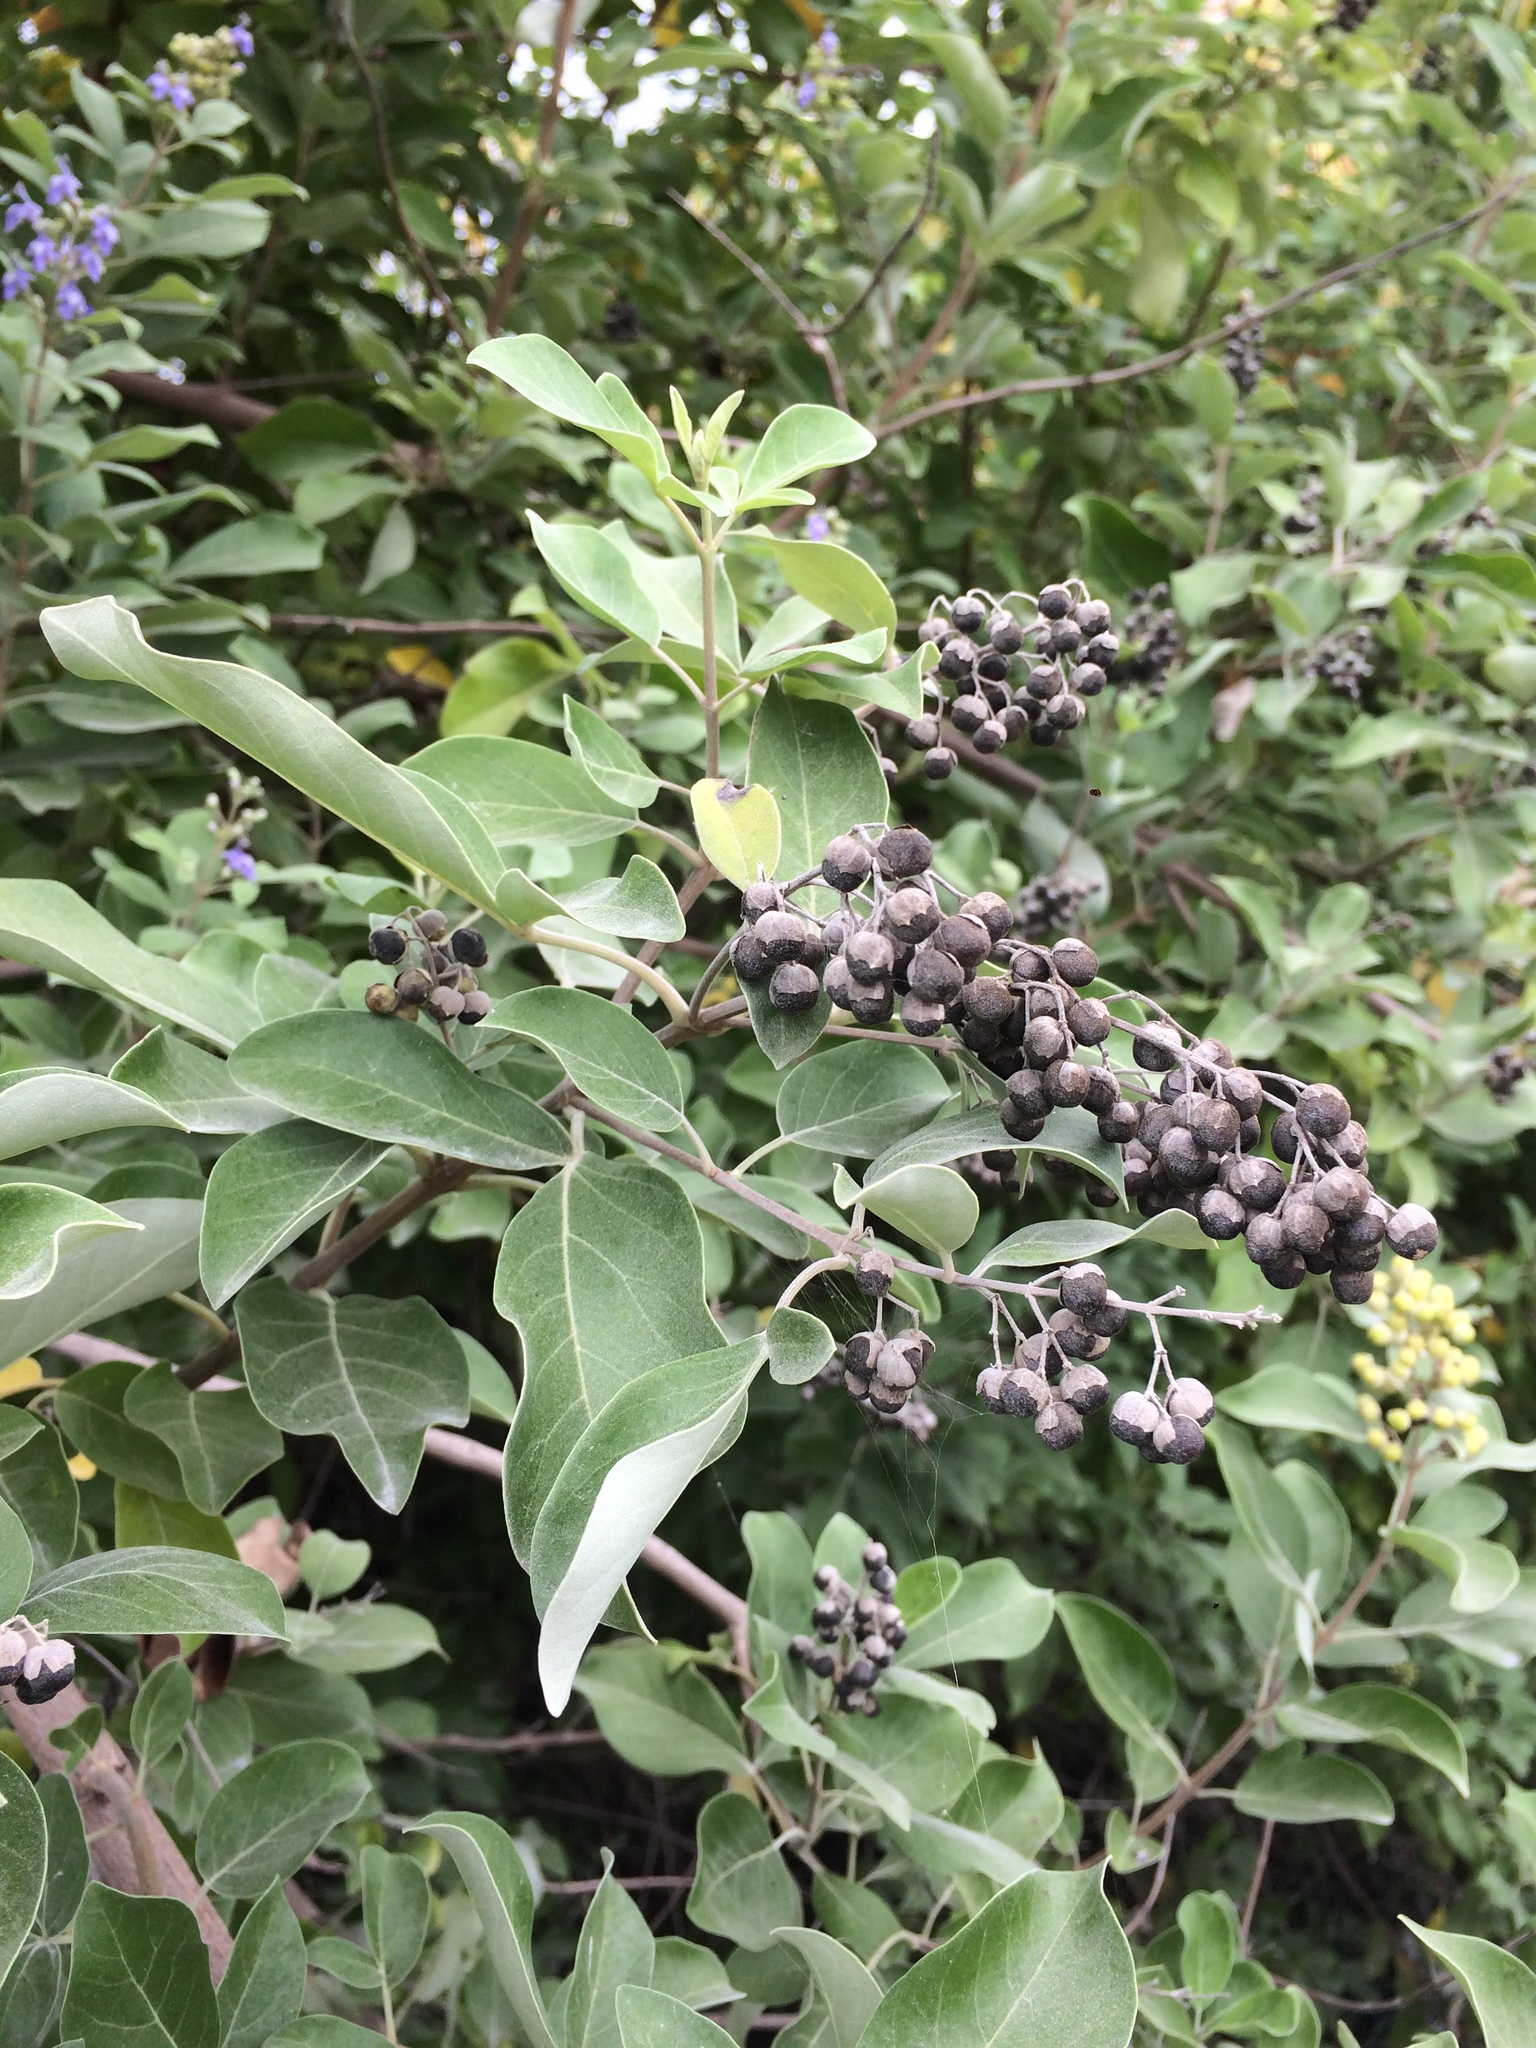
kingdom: Plantae
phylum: Tracheophyta
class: Magnoliopsida
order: Lamiales
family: Lamiaceae
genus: Vitex
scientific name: Vitex trifolia
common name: Simpleleaf chastetree
